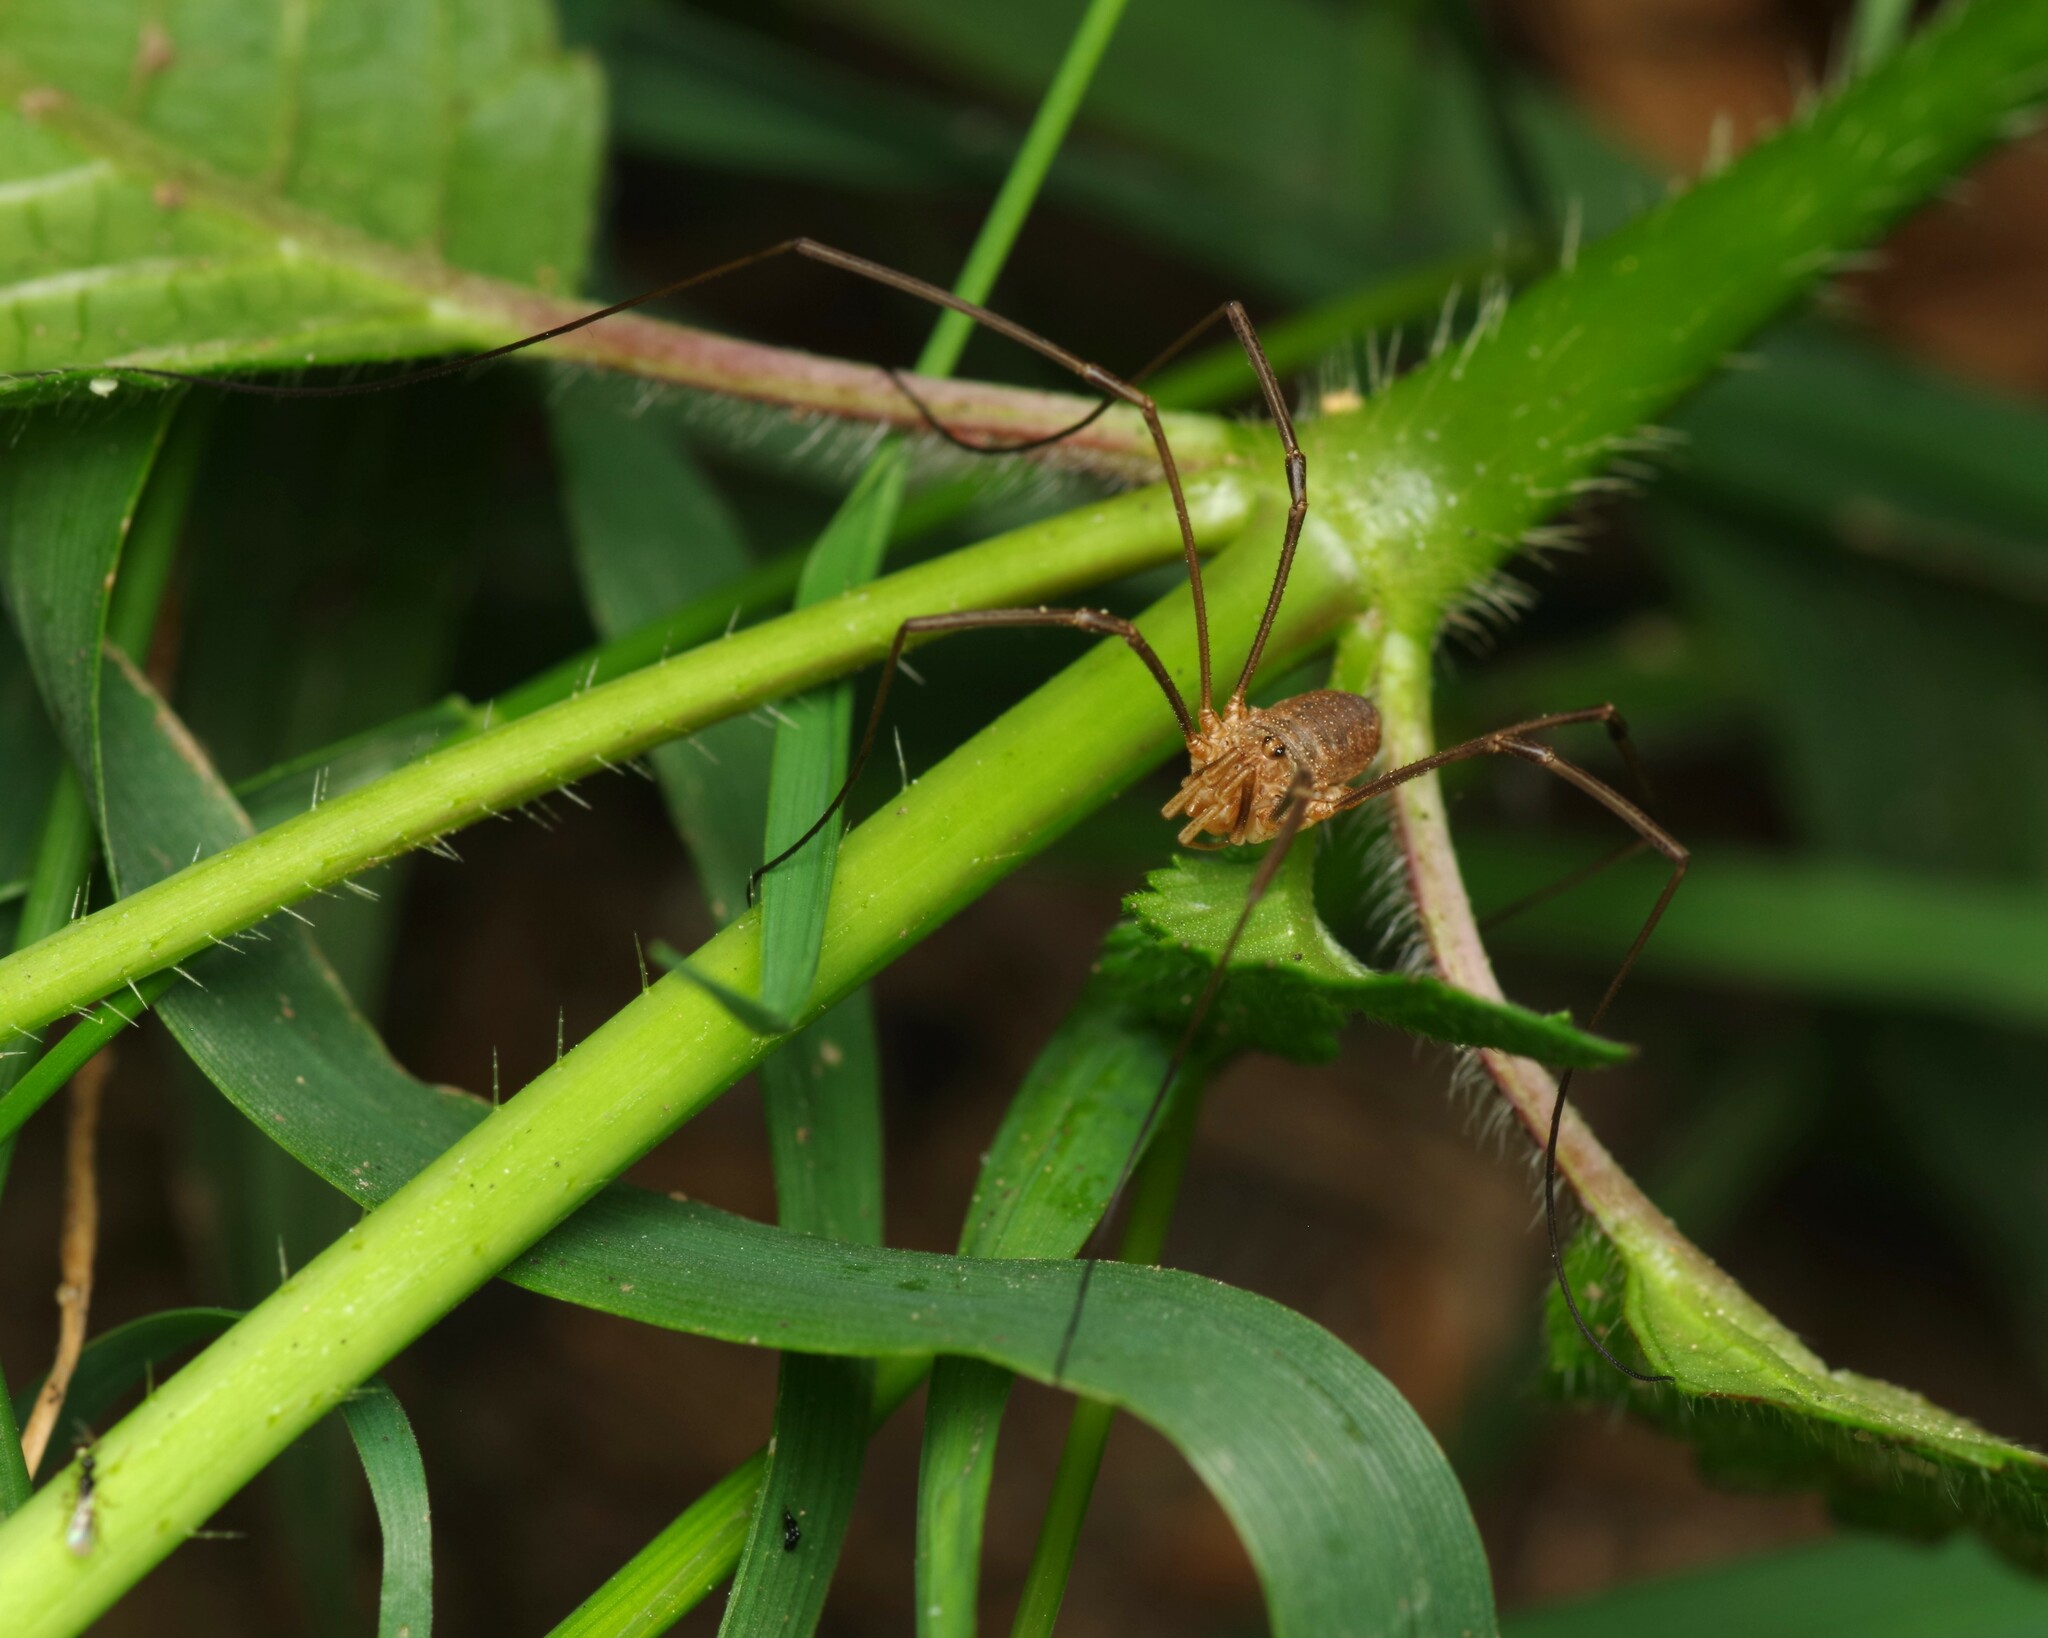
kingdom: Animalia
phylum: Arthropoda
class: Arachnida
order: Opiliones
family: Phalangiidae
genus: Phalangium
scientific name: Phalangium opilio
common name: Daddy longleg
